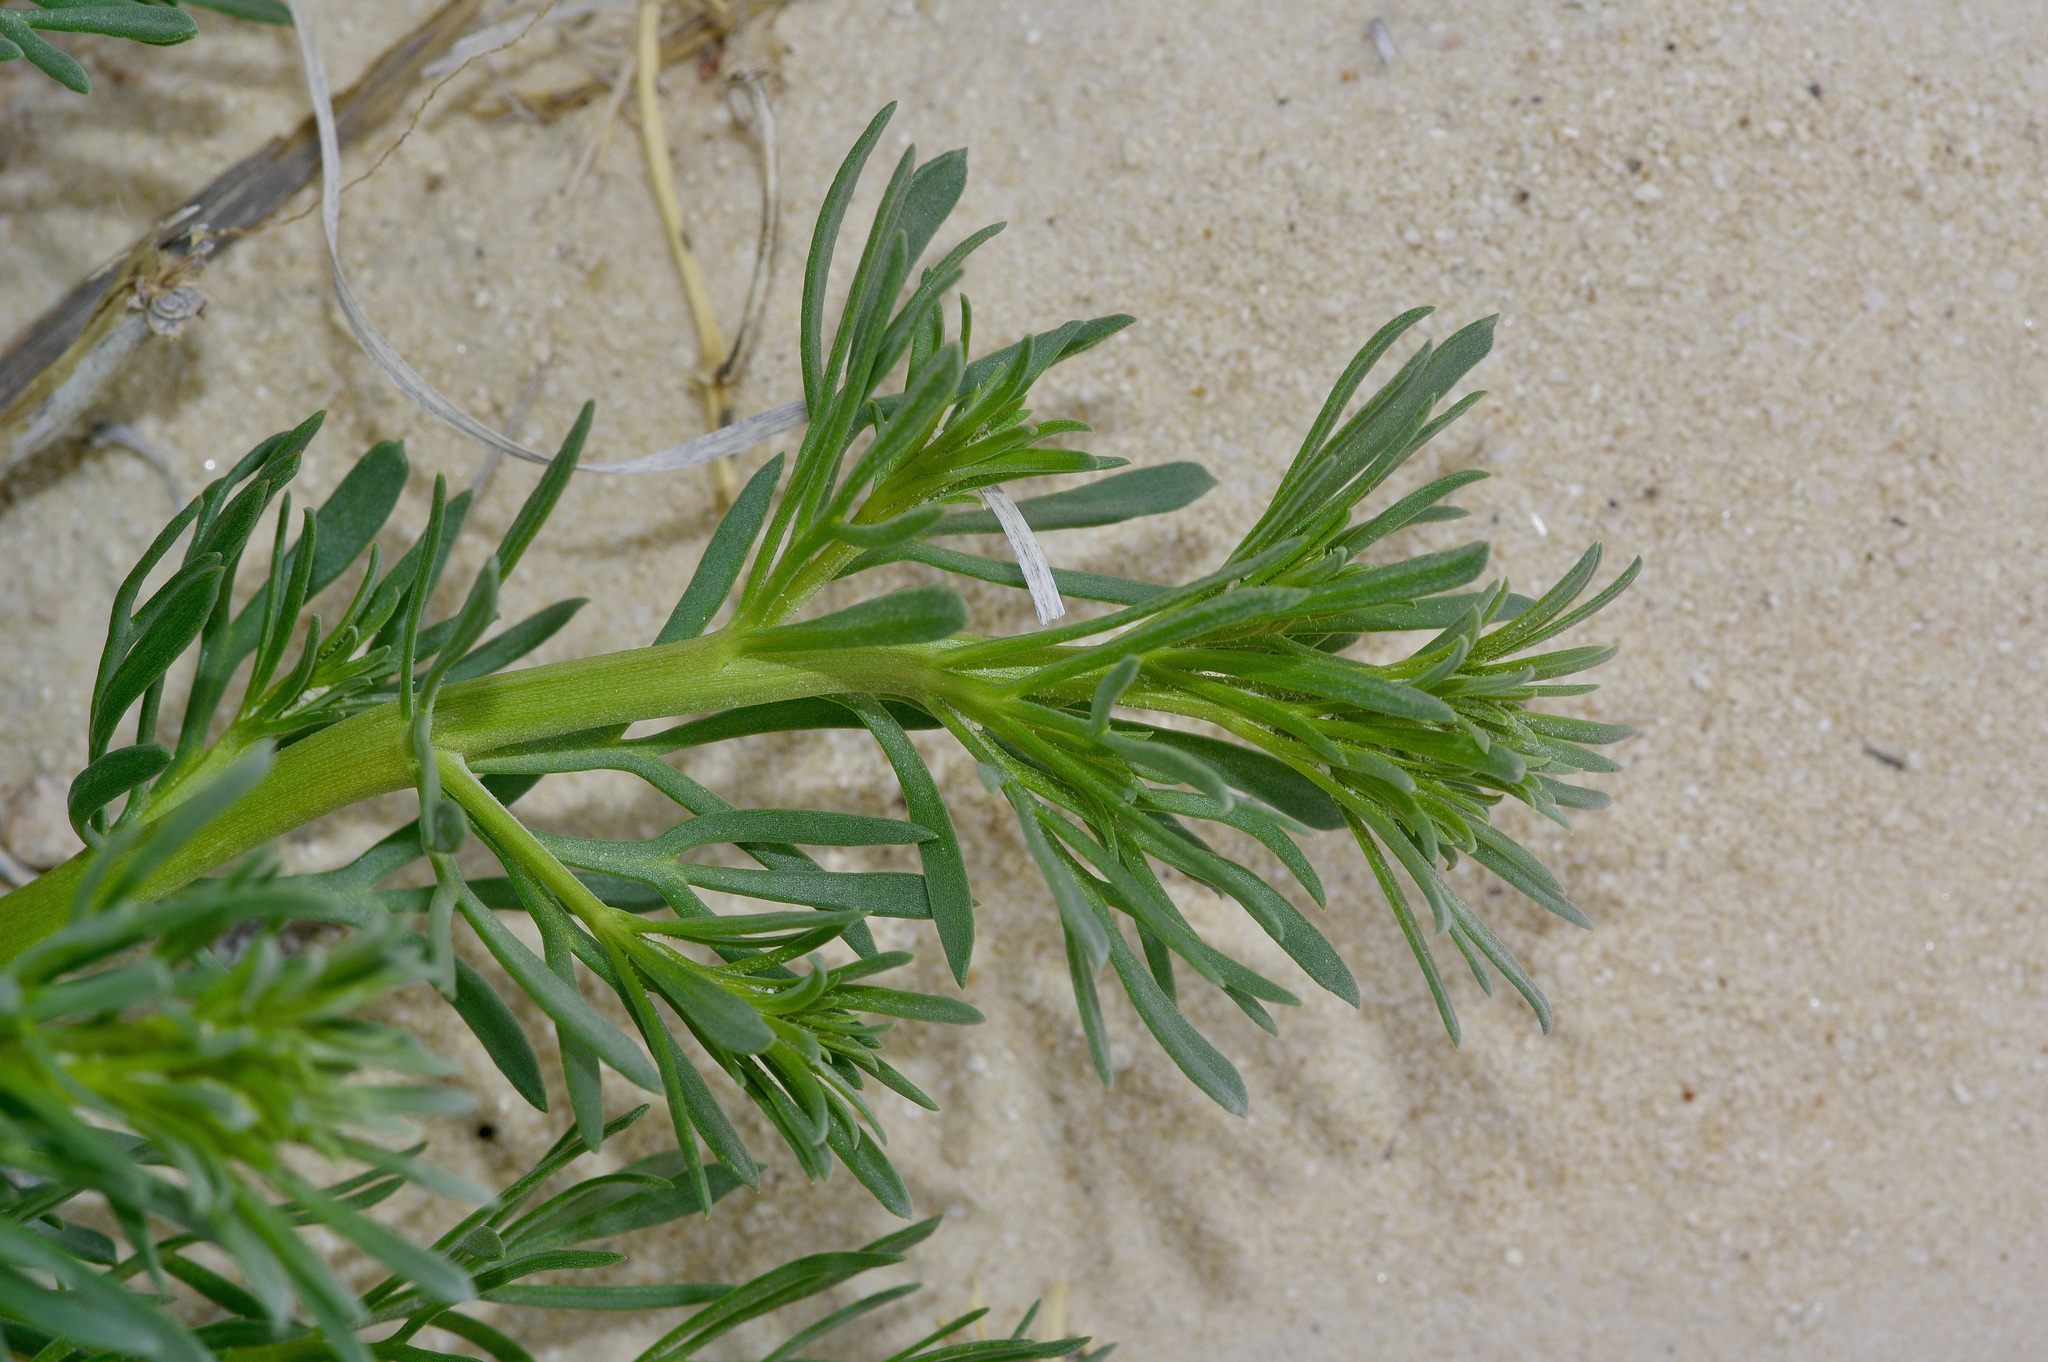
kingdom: Plantae
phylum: Tracheophyta
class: Magnoliopsida
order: Sapindales
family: Tetradiclidaceae
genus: Peganum
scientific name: Peganum harmala
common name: Harmal peganum
